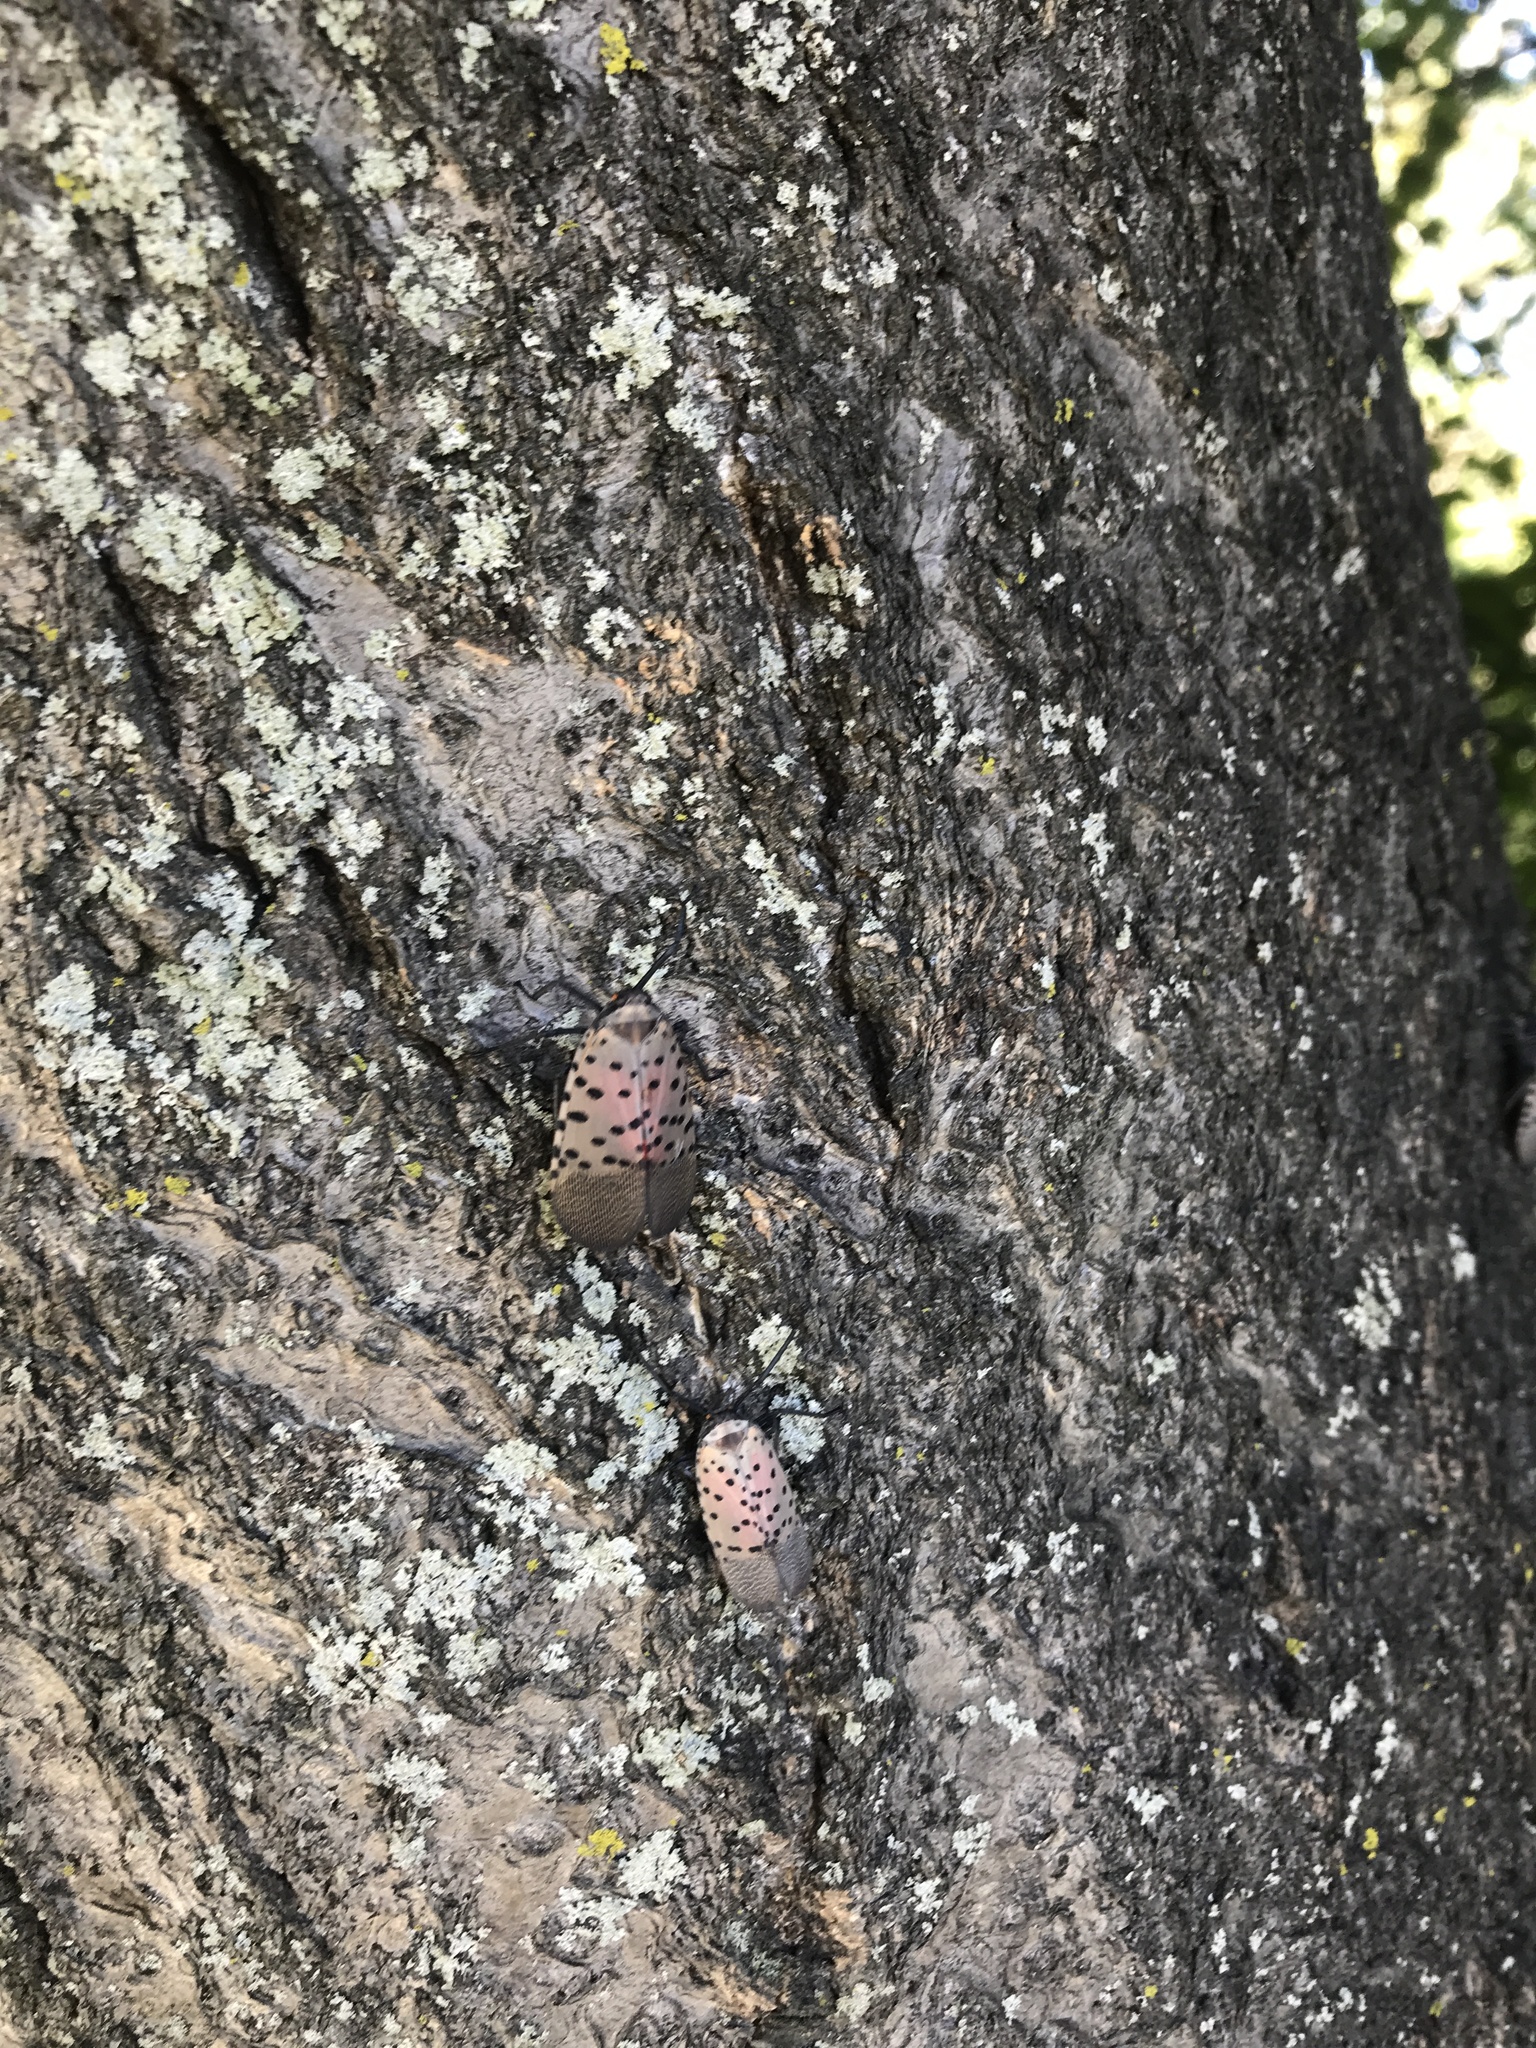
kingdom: Animalia
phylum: Arthropoda
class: Insecta
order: Hemiptera
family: Fulgoridae
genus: Lycorma
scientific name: Lycorma delicatula
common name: Spotted lanternfly
